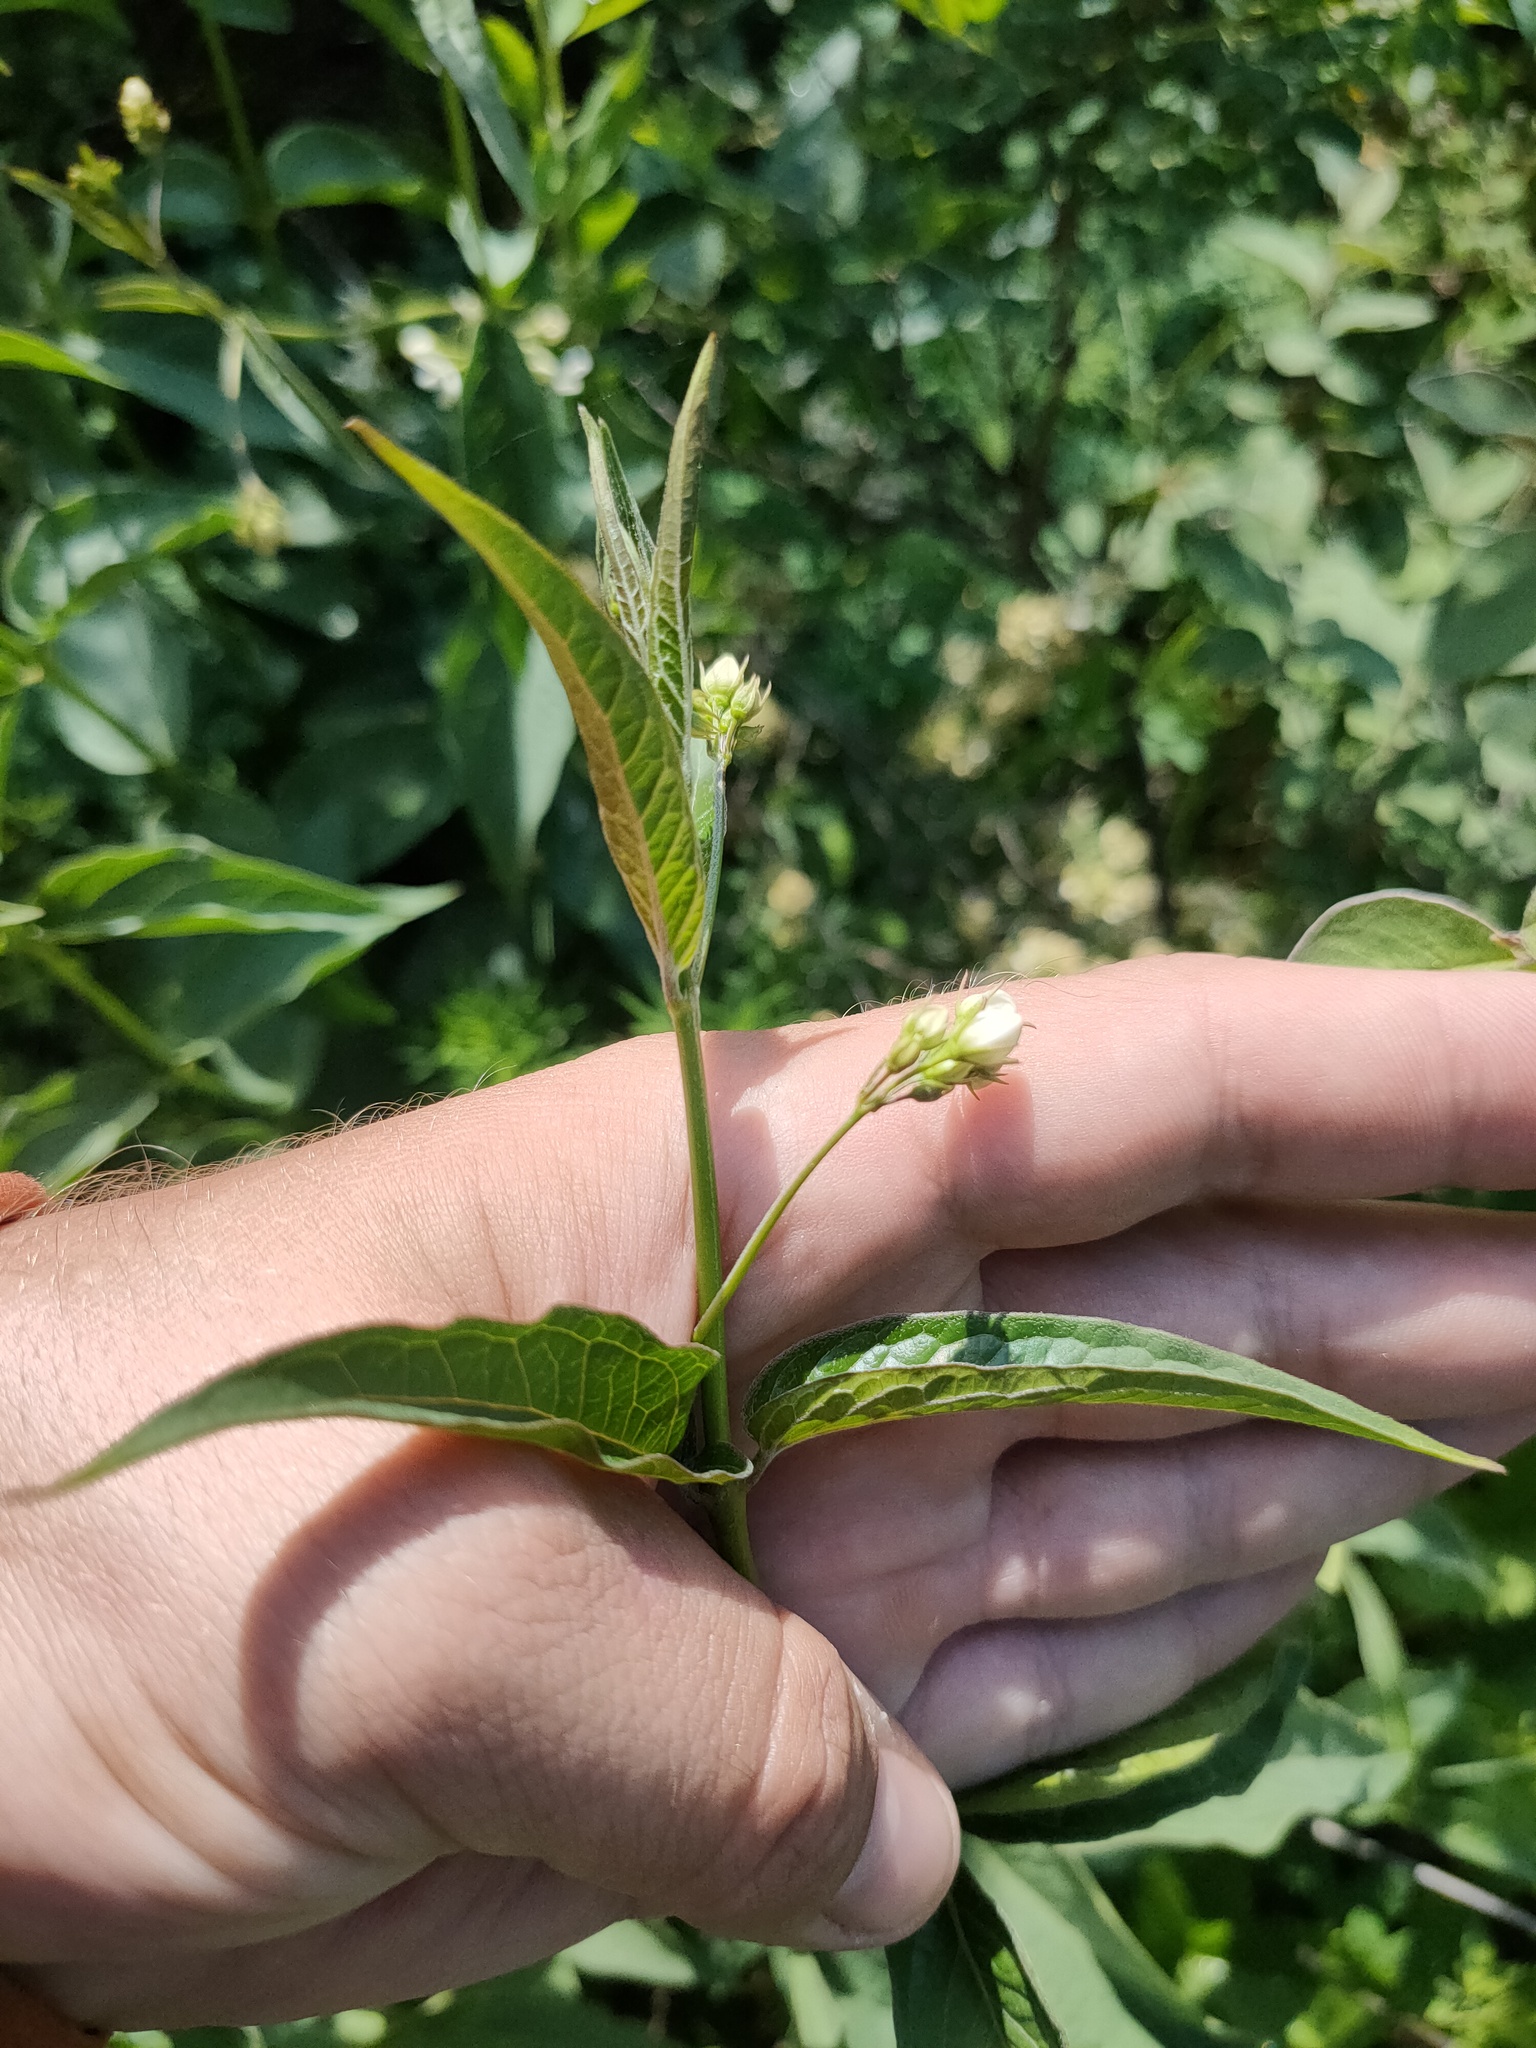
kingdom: Plantae
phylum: Tracheophyta
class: Magnoliopsida
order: Gentianales
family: Apocynaceae
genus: Vincetoxicum
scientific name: Vincetoxicum hirundinaria
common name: White swallowwort
